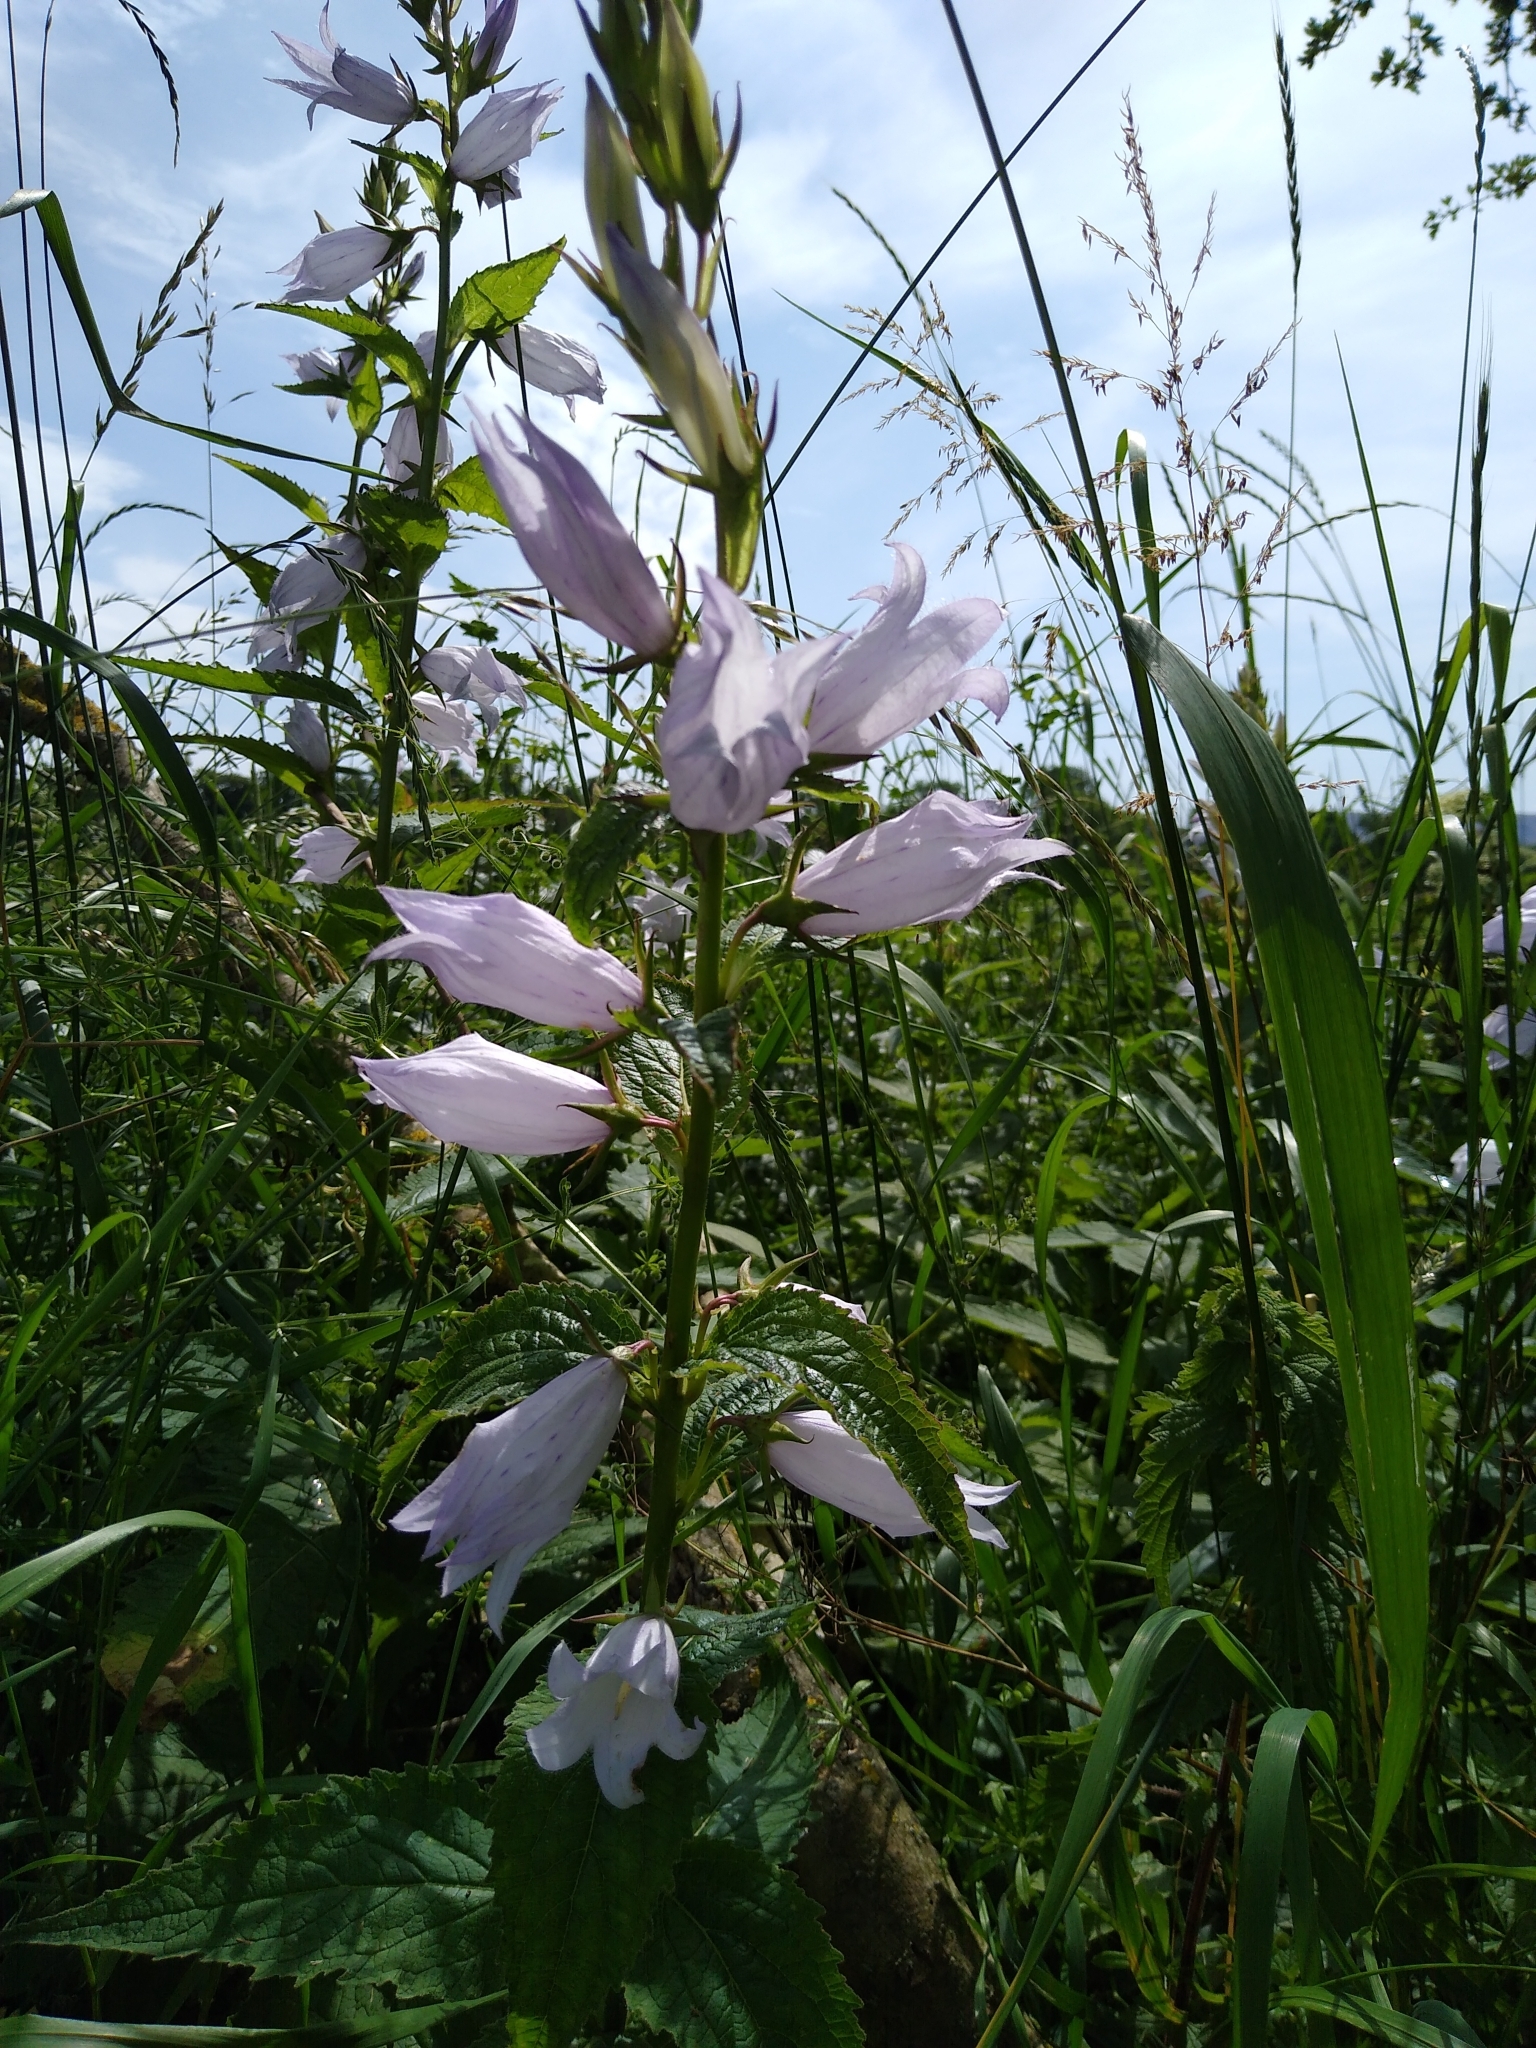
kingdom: Plantae
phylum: Tracheophyta
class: Magnoliopsida
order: Asterales
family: Campanulaceae
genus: Campanula
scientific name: Campanula latifolia
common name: Giant bellflower
